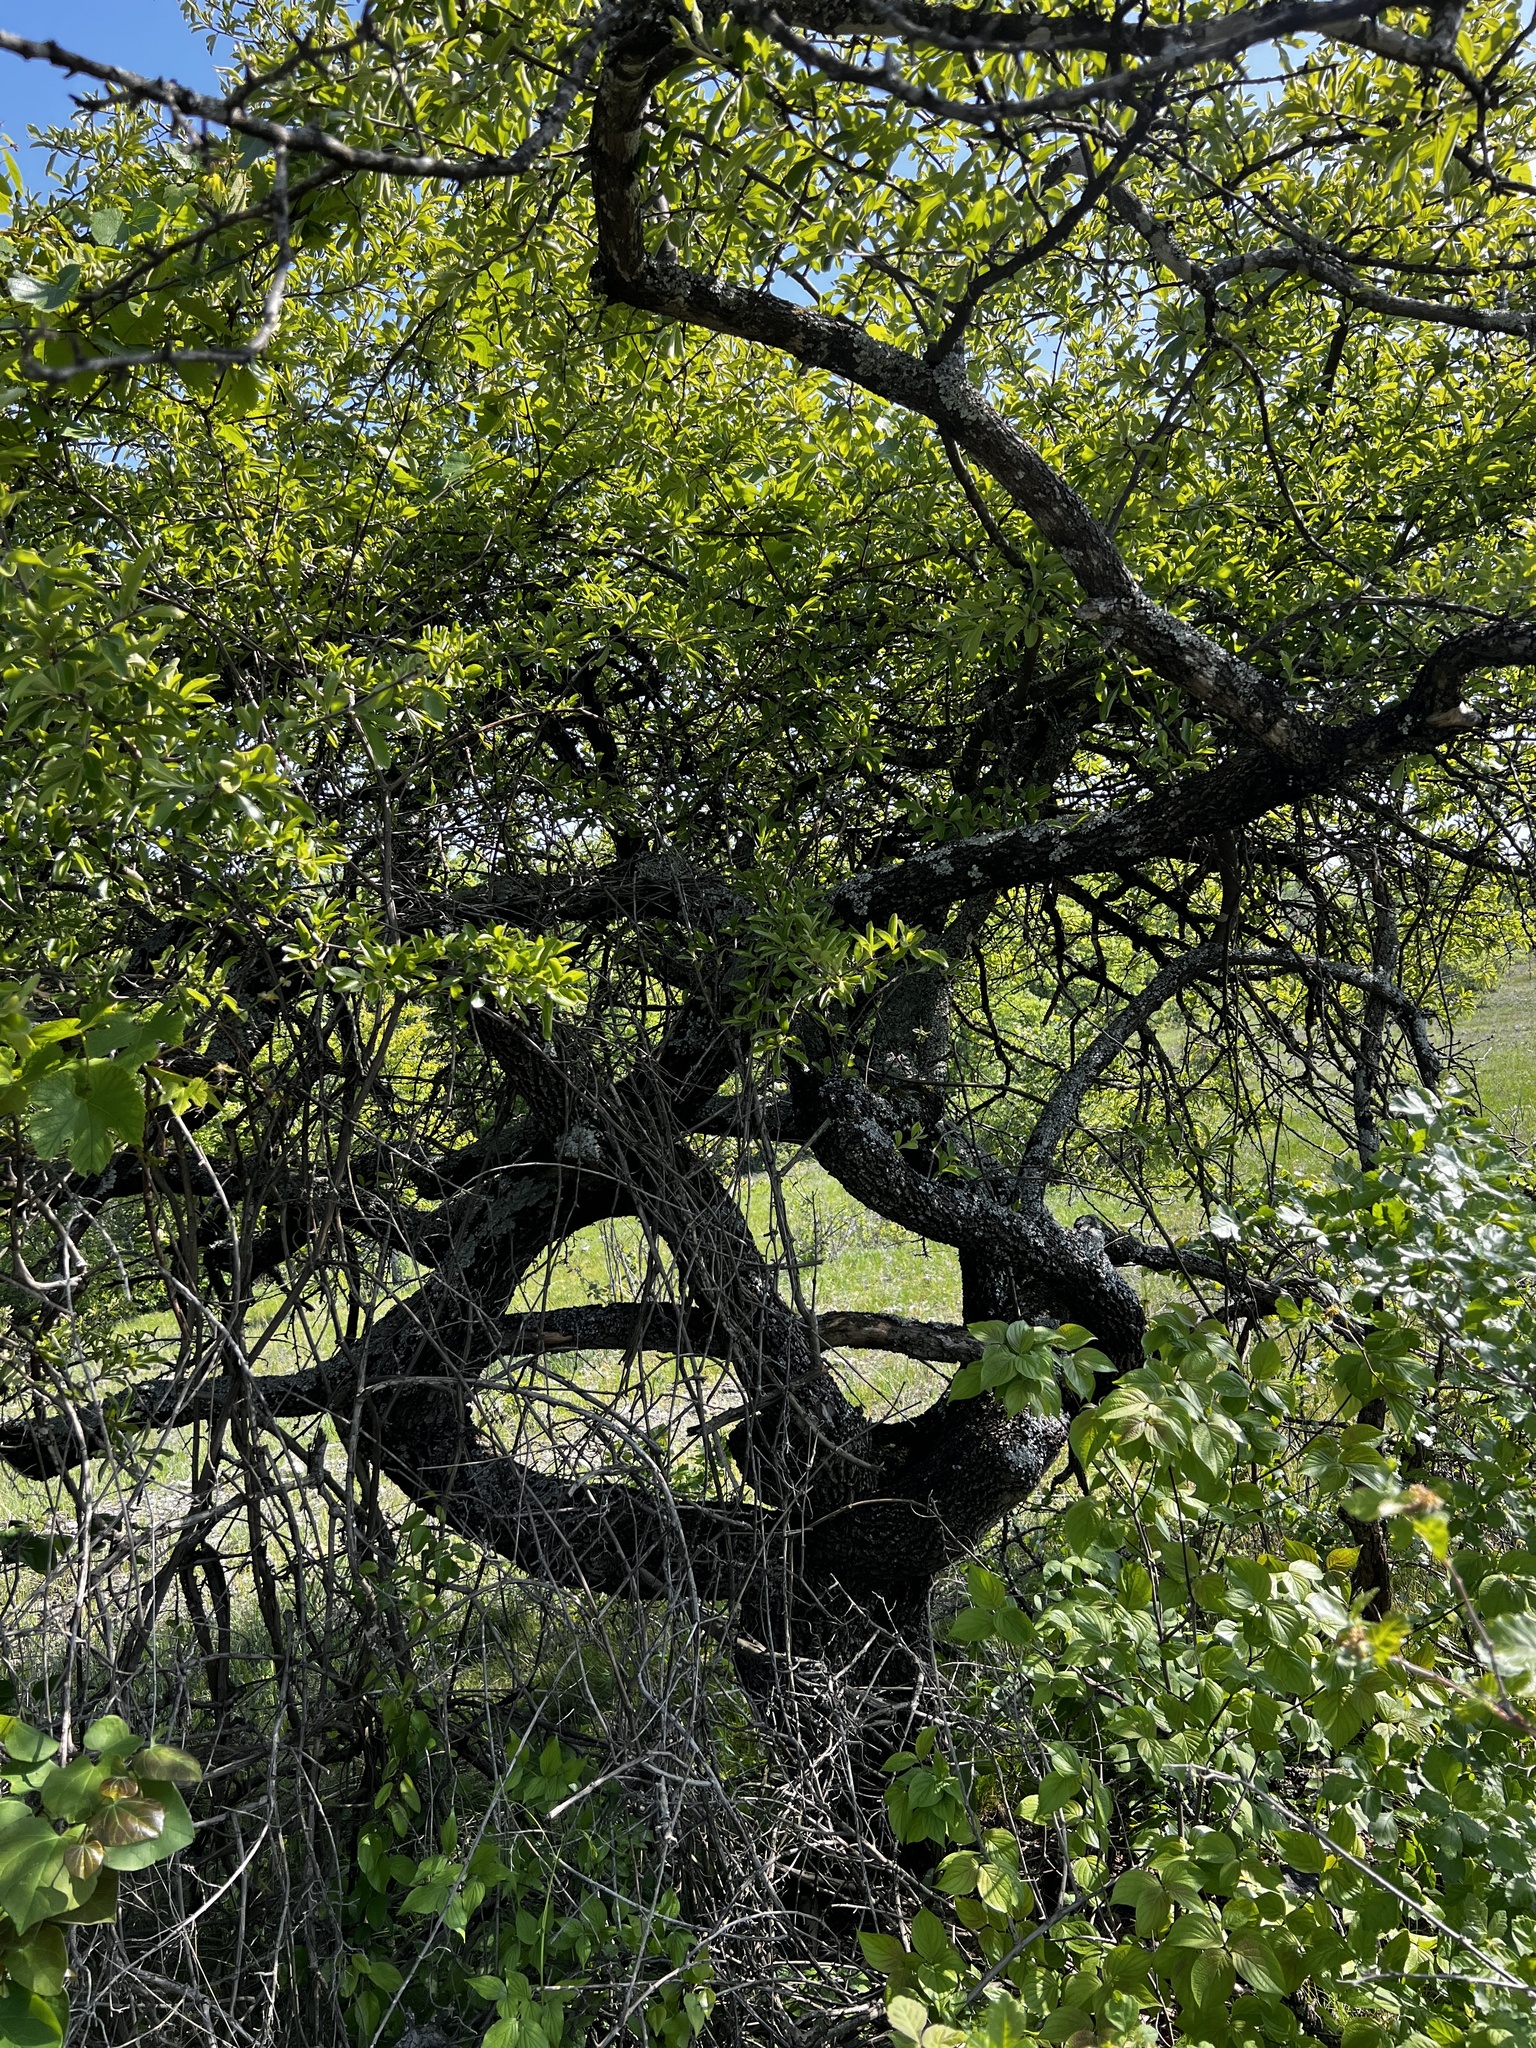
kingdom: Plantae
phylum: Tracheophyta
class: Magnoliopsida
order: Ericales
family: Sapotaceae
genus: Sideroxylon
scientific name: Sideroxylon lanuginosum
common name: Chittamwood
